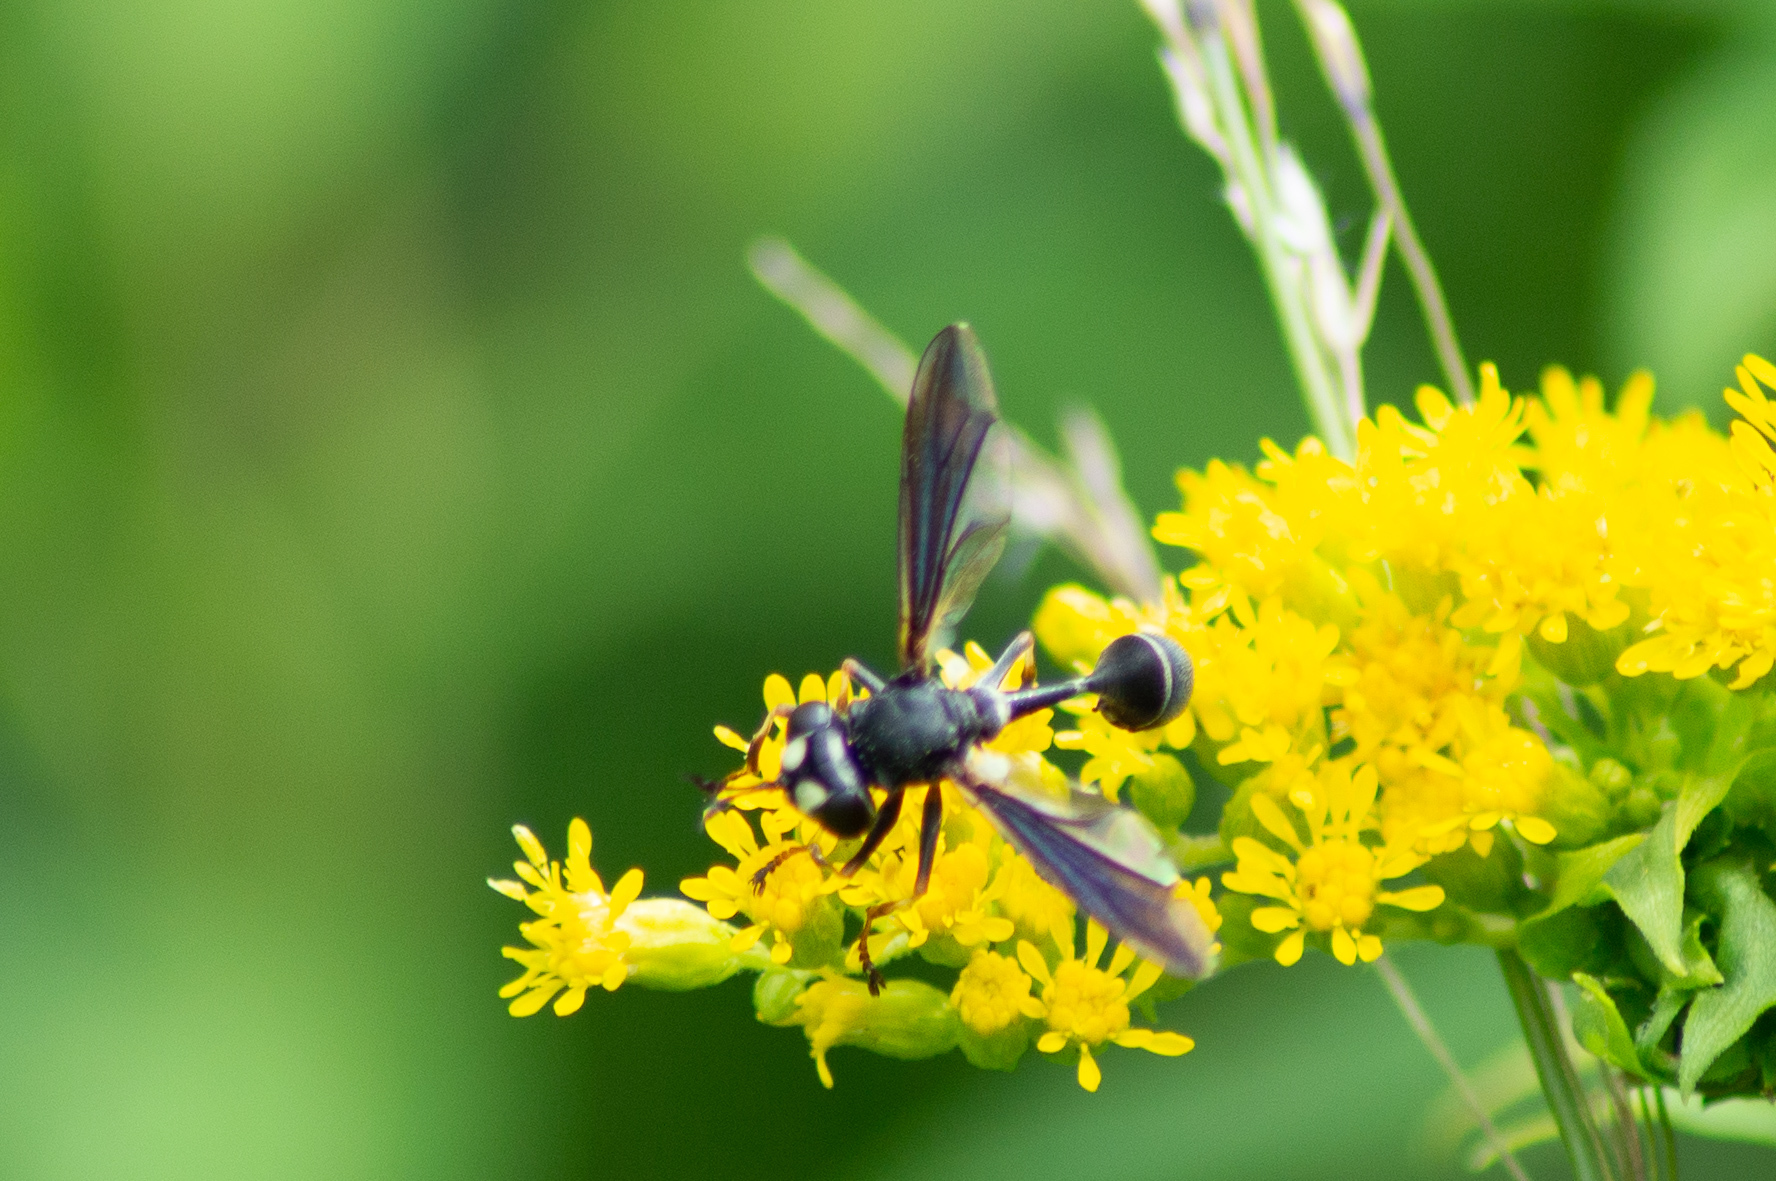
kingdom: Animalia
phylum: Arthropoda
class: Insecta
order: Diptera
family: Conopidae
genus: Physocephala
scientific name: Physocephala tibialis
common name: Common eastern physocephala
